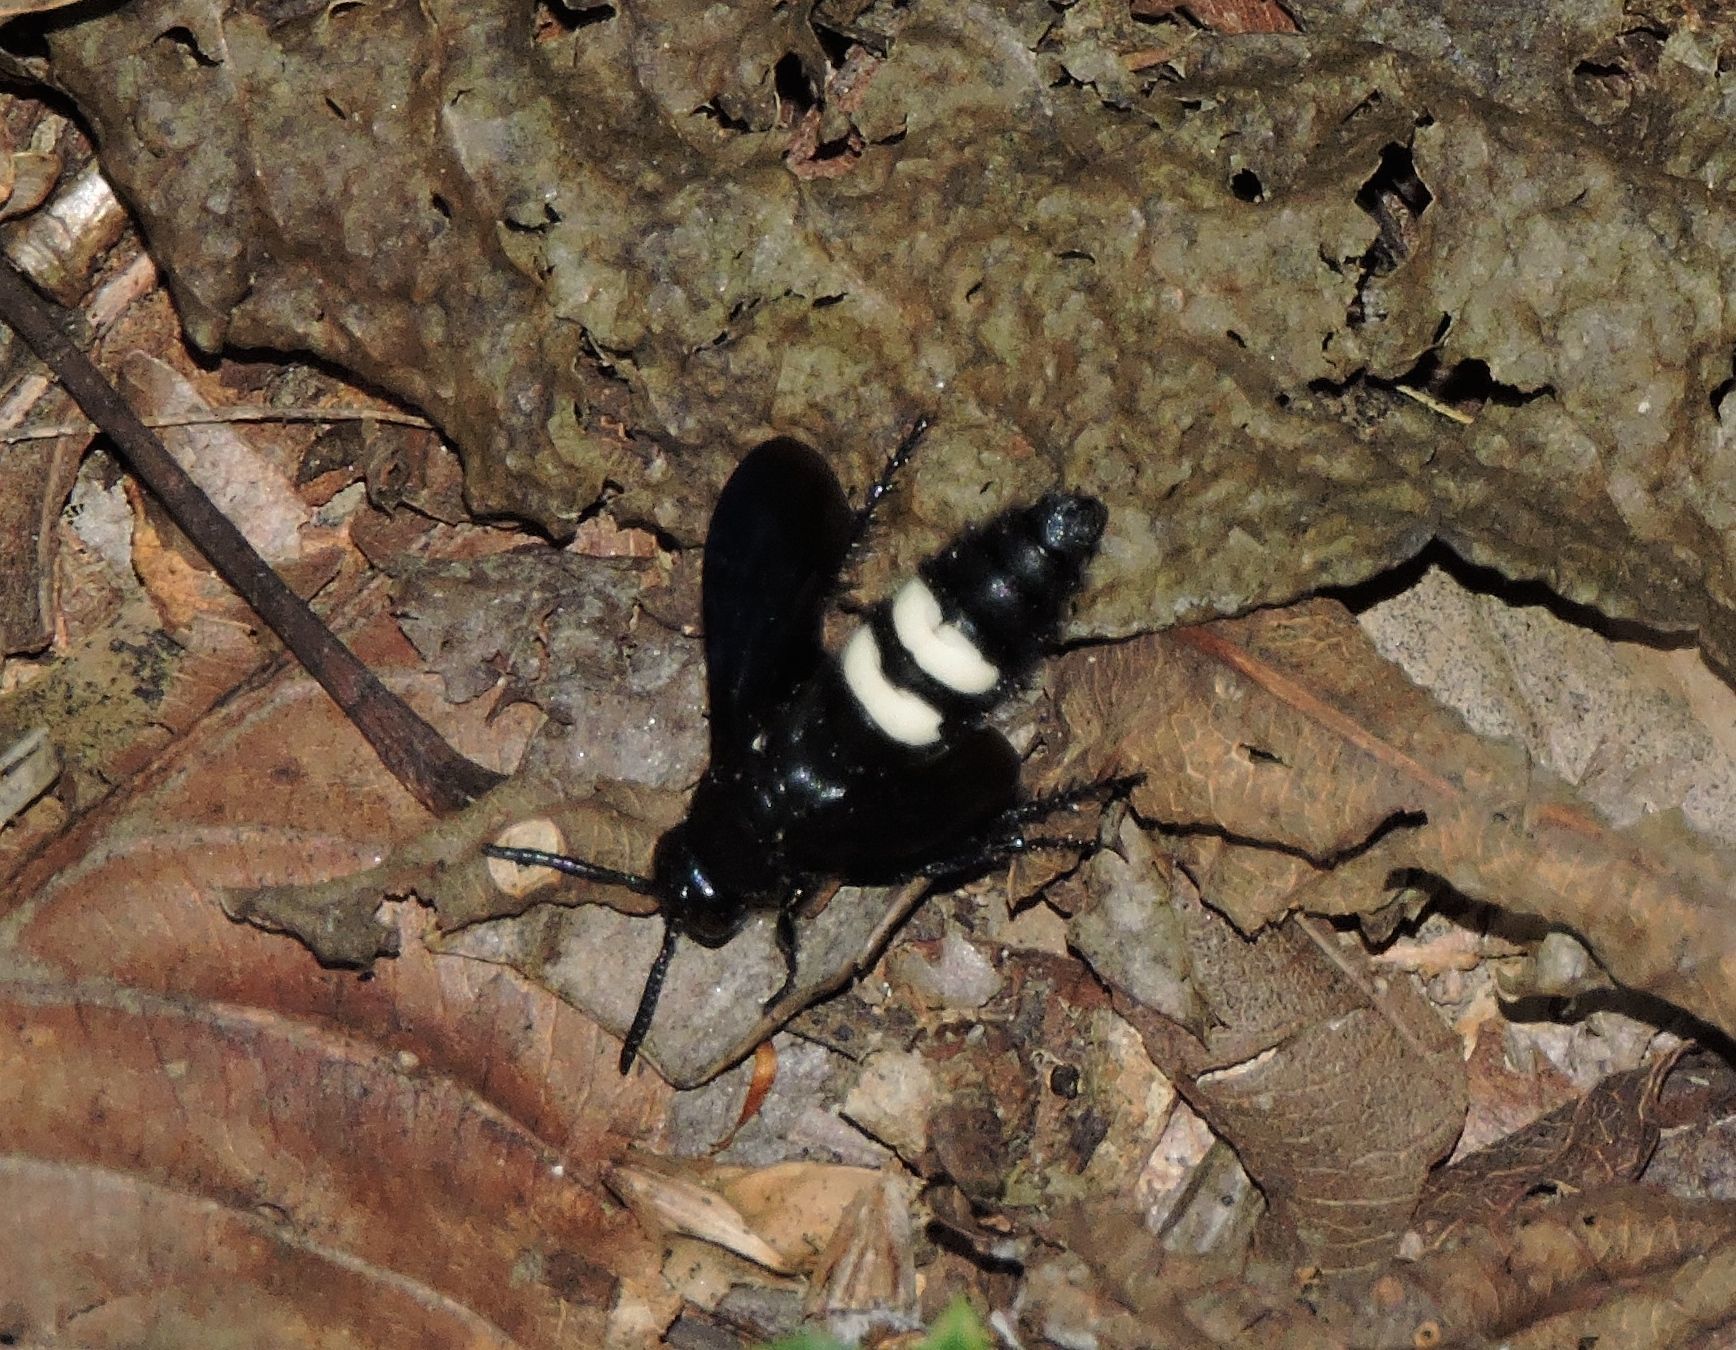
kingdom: Animalia
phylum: Arthropoda
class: Insecta
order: Hymenoptera
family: Scoliidae
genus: Scolia
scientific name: Scolia bicincta
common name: Double-banded scoliid wasp
